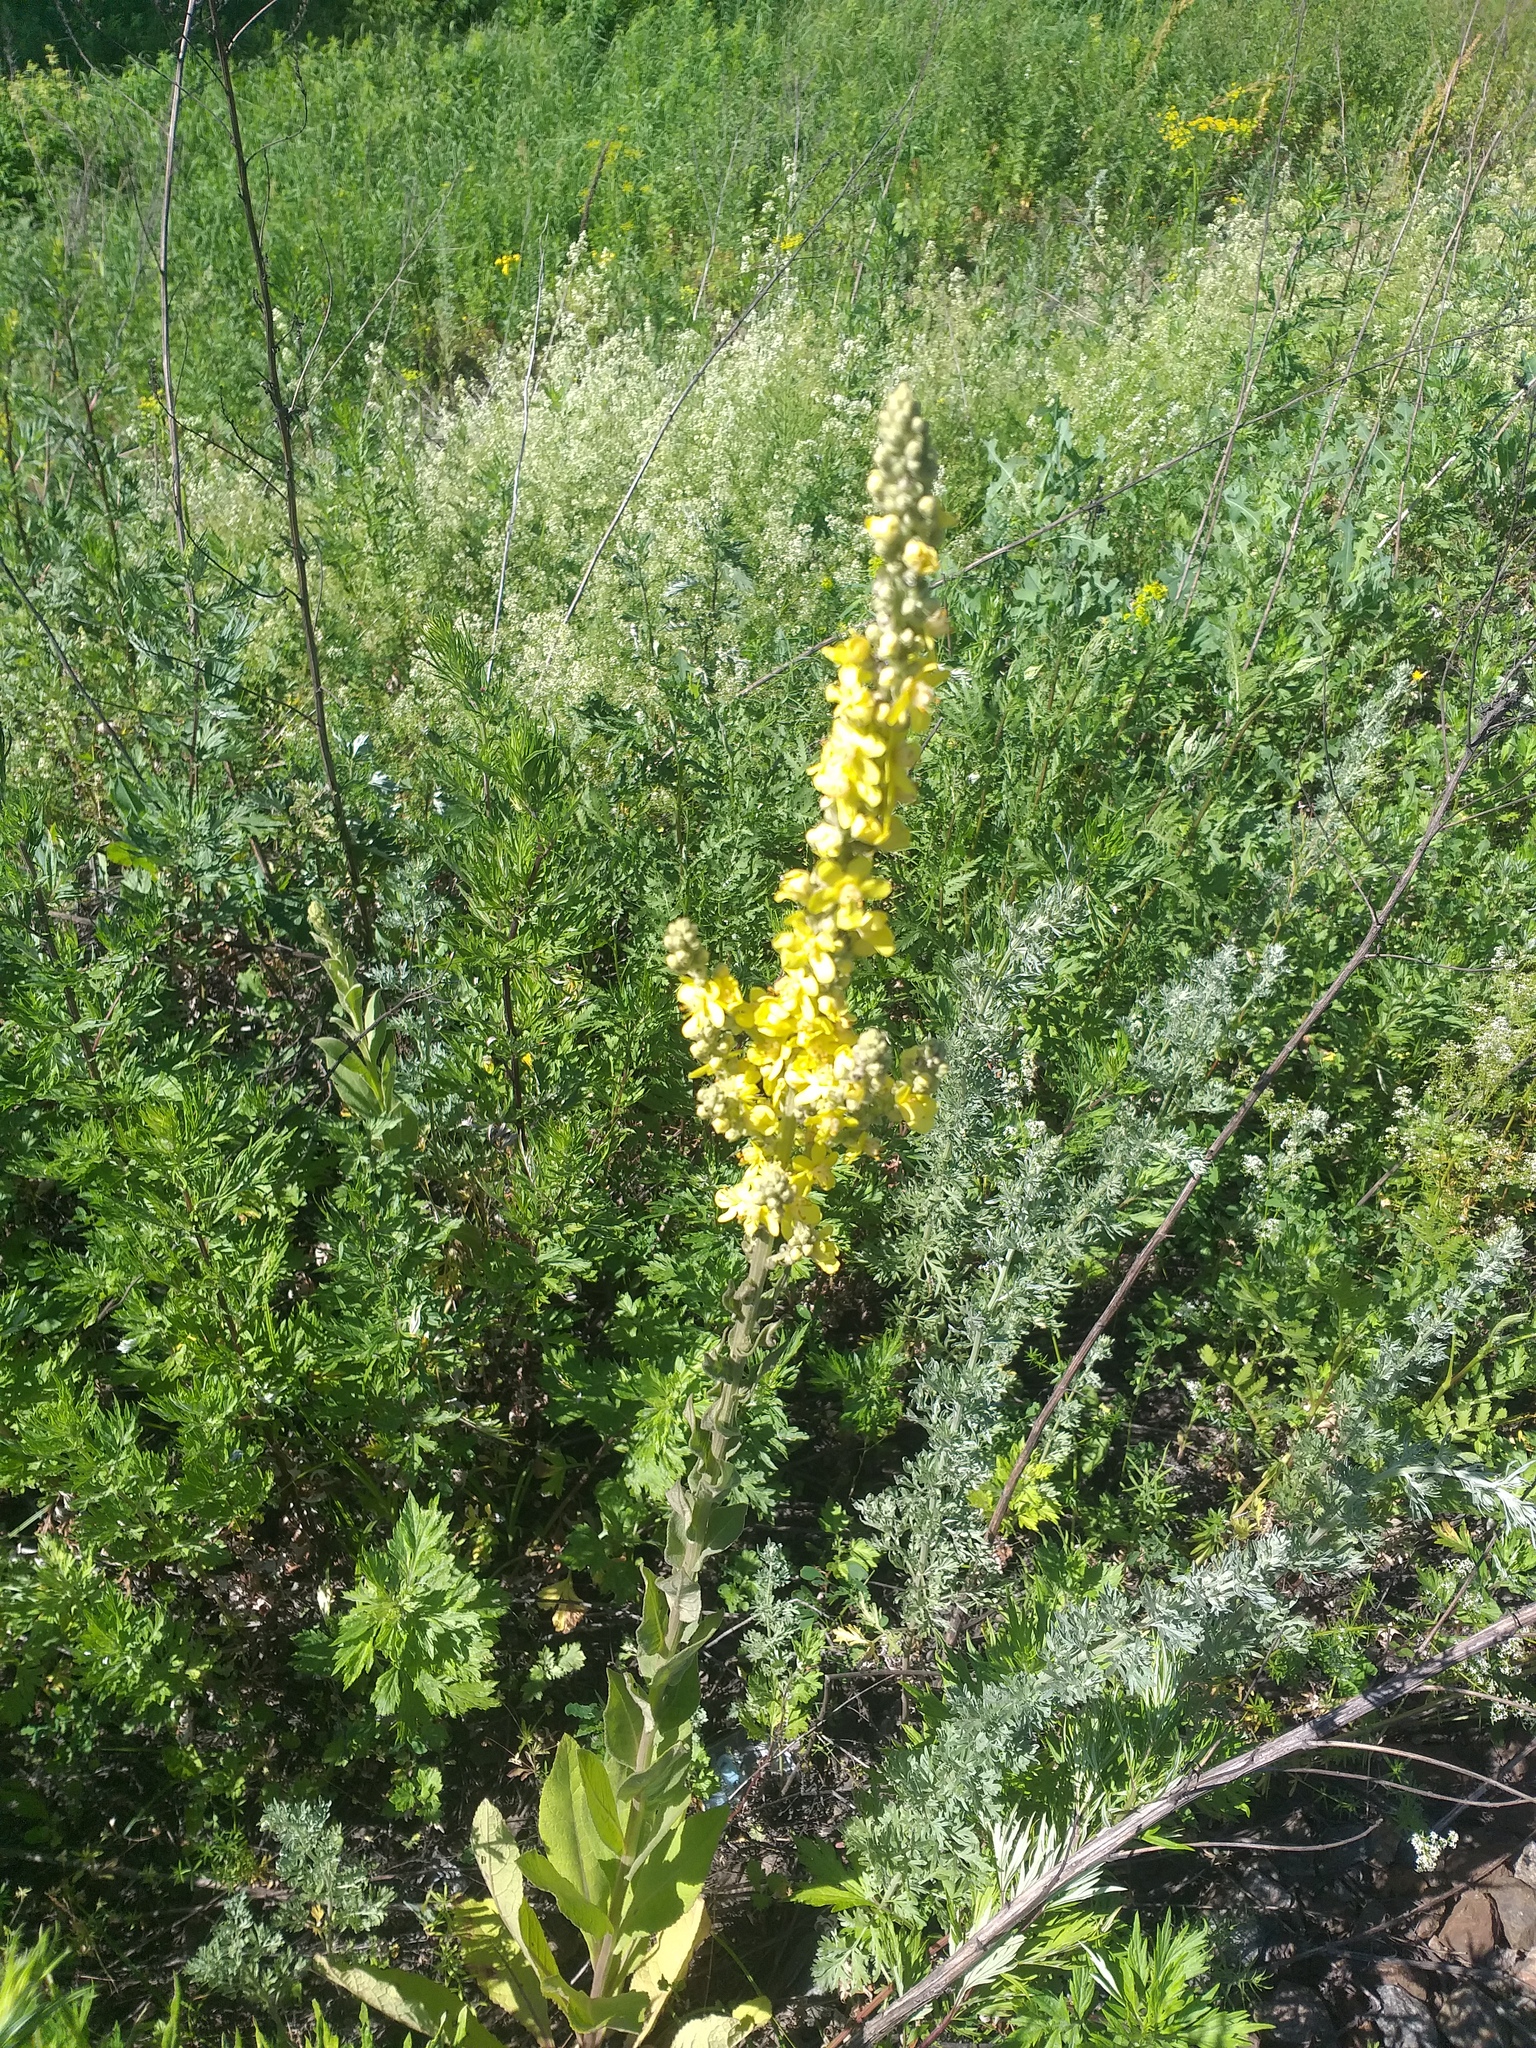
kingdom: Plantae
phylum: Tracheophyta
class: Magnoliopsida
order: Lamiales
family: Scrophulariaceae
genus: Verbascum
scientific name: Verbascum lychnitis
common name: White mullein
